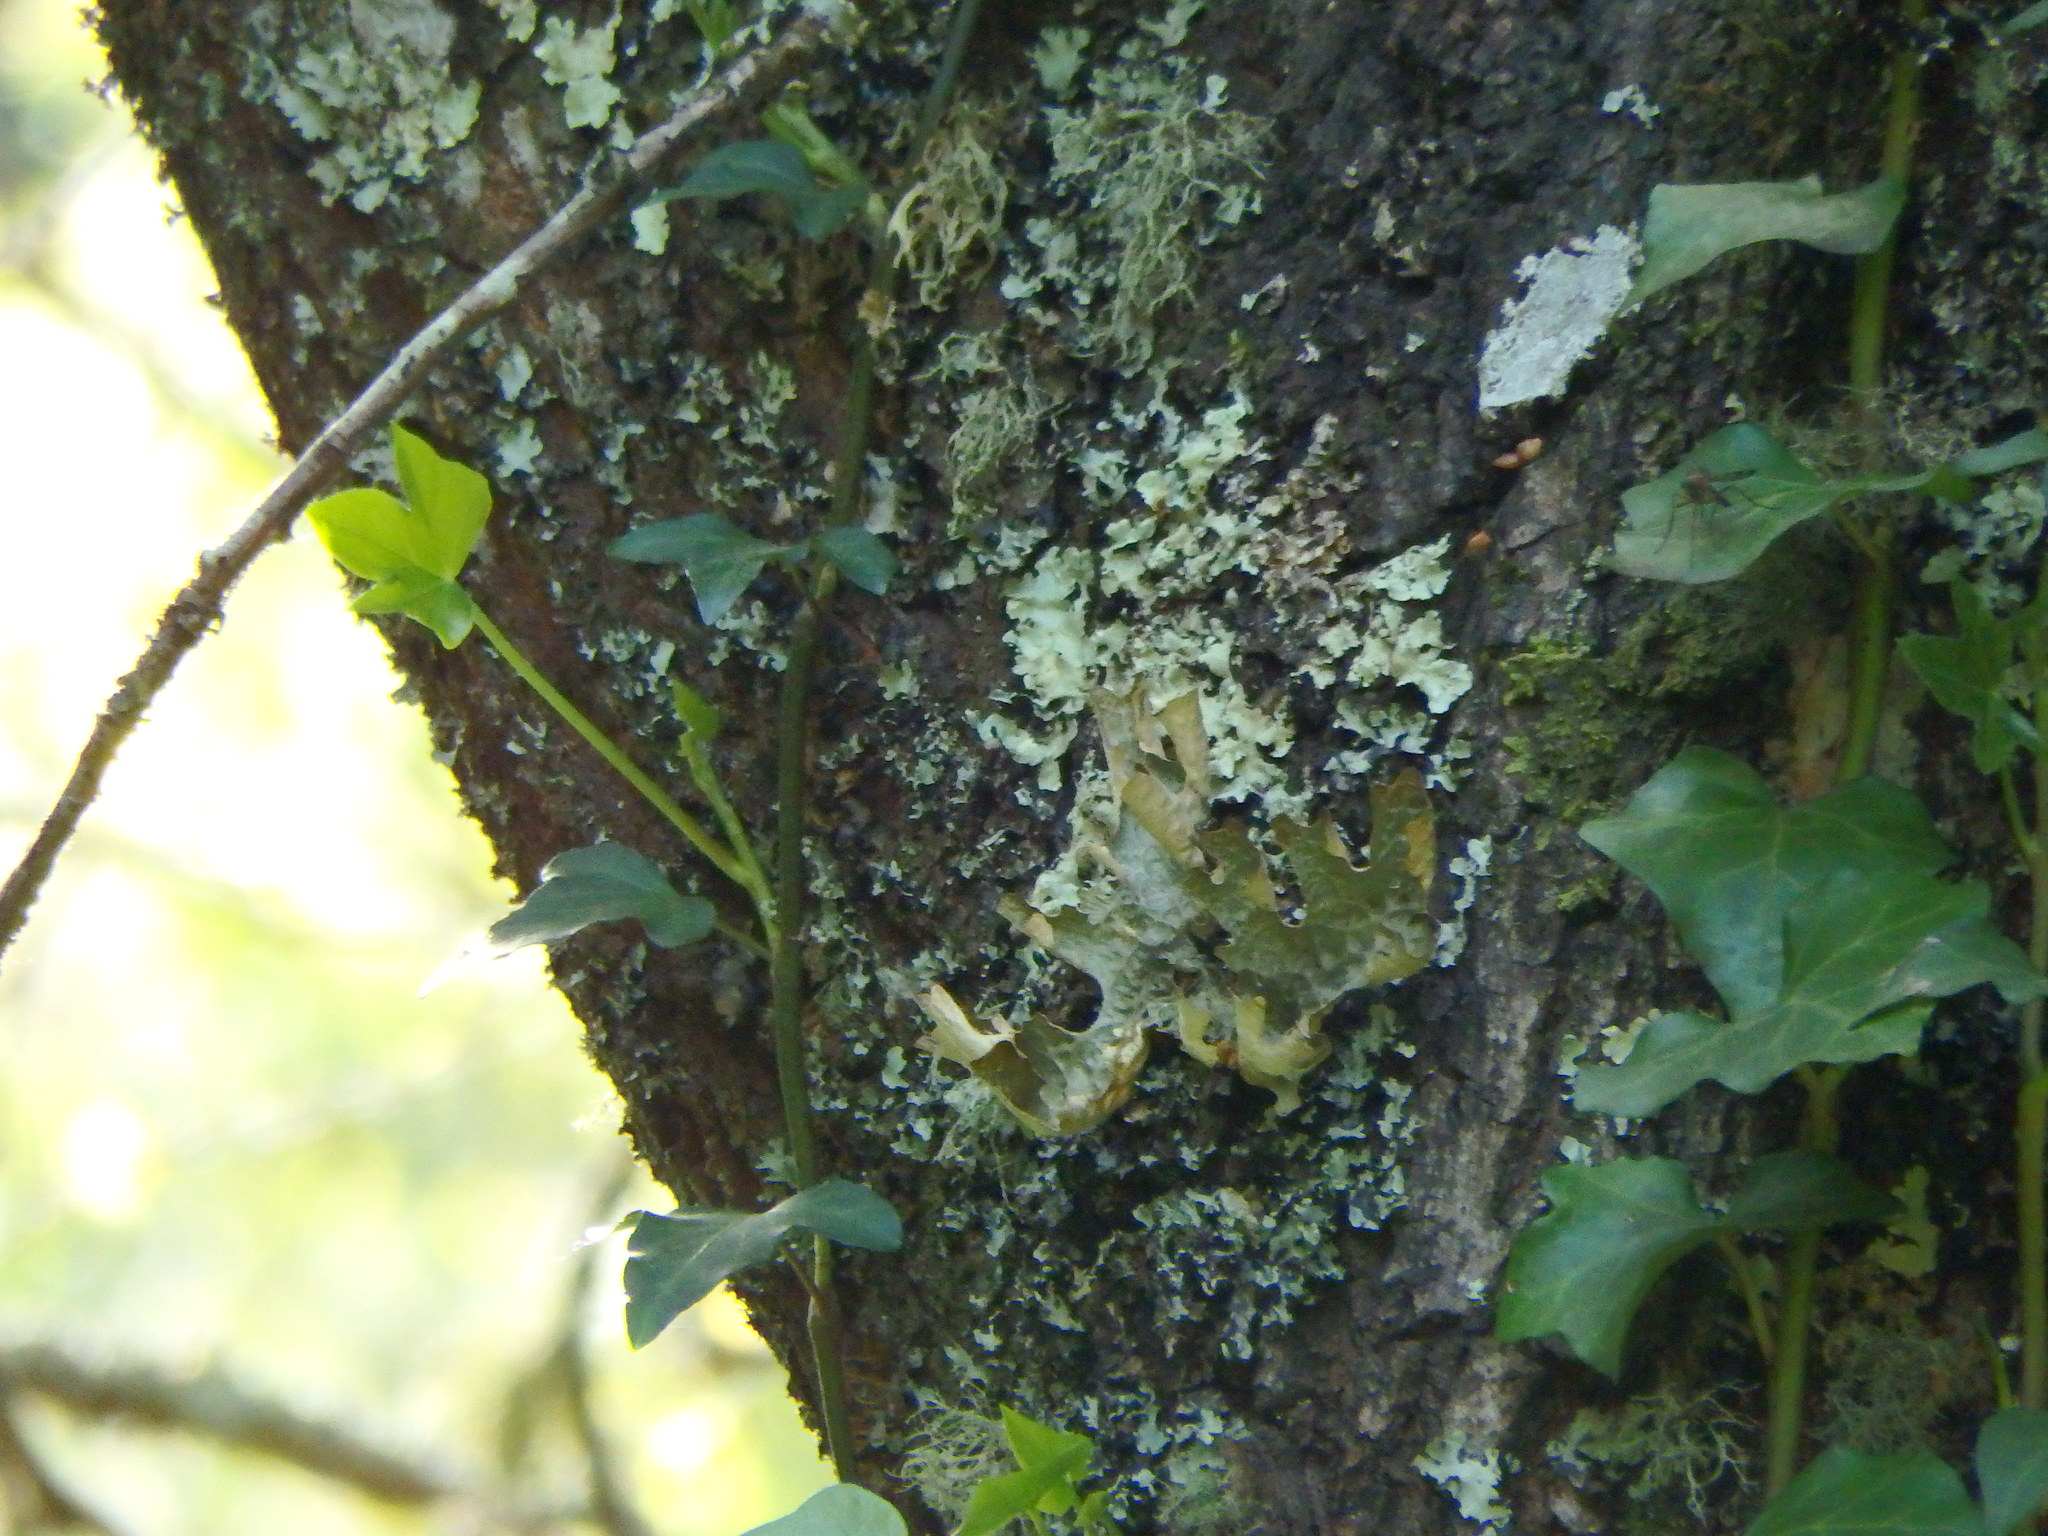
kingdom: Fungi
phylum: Ascomycota
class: Lecanoromycetes
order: Peltigerales
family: Lobariaceae
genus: Lobaria
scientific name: Lobaria pulmonaria
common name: Lungwort
